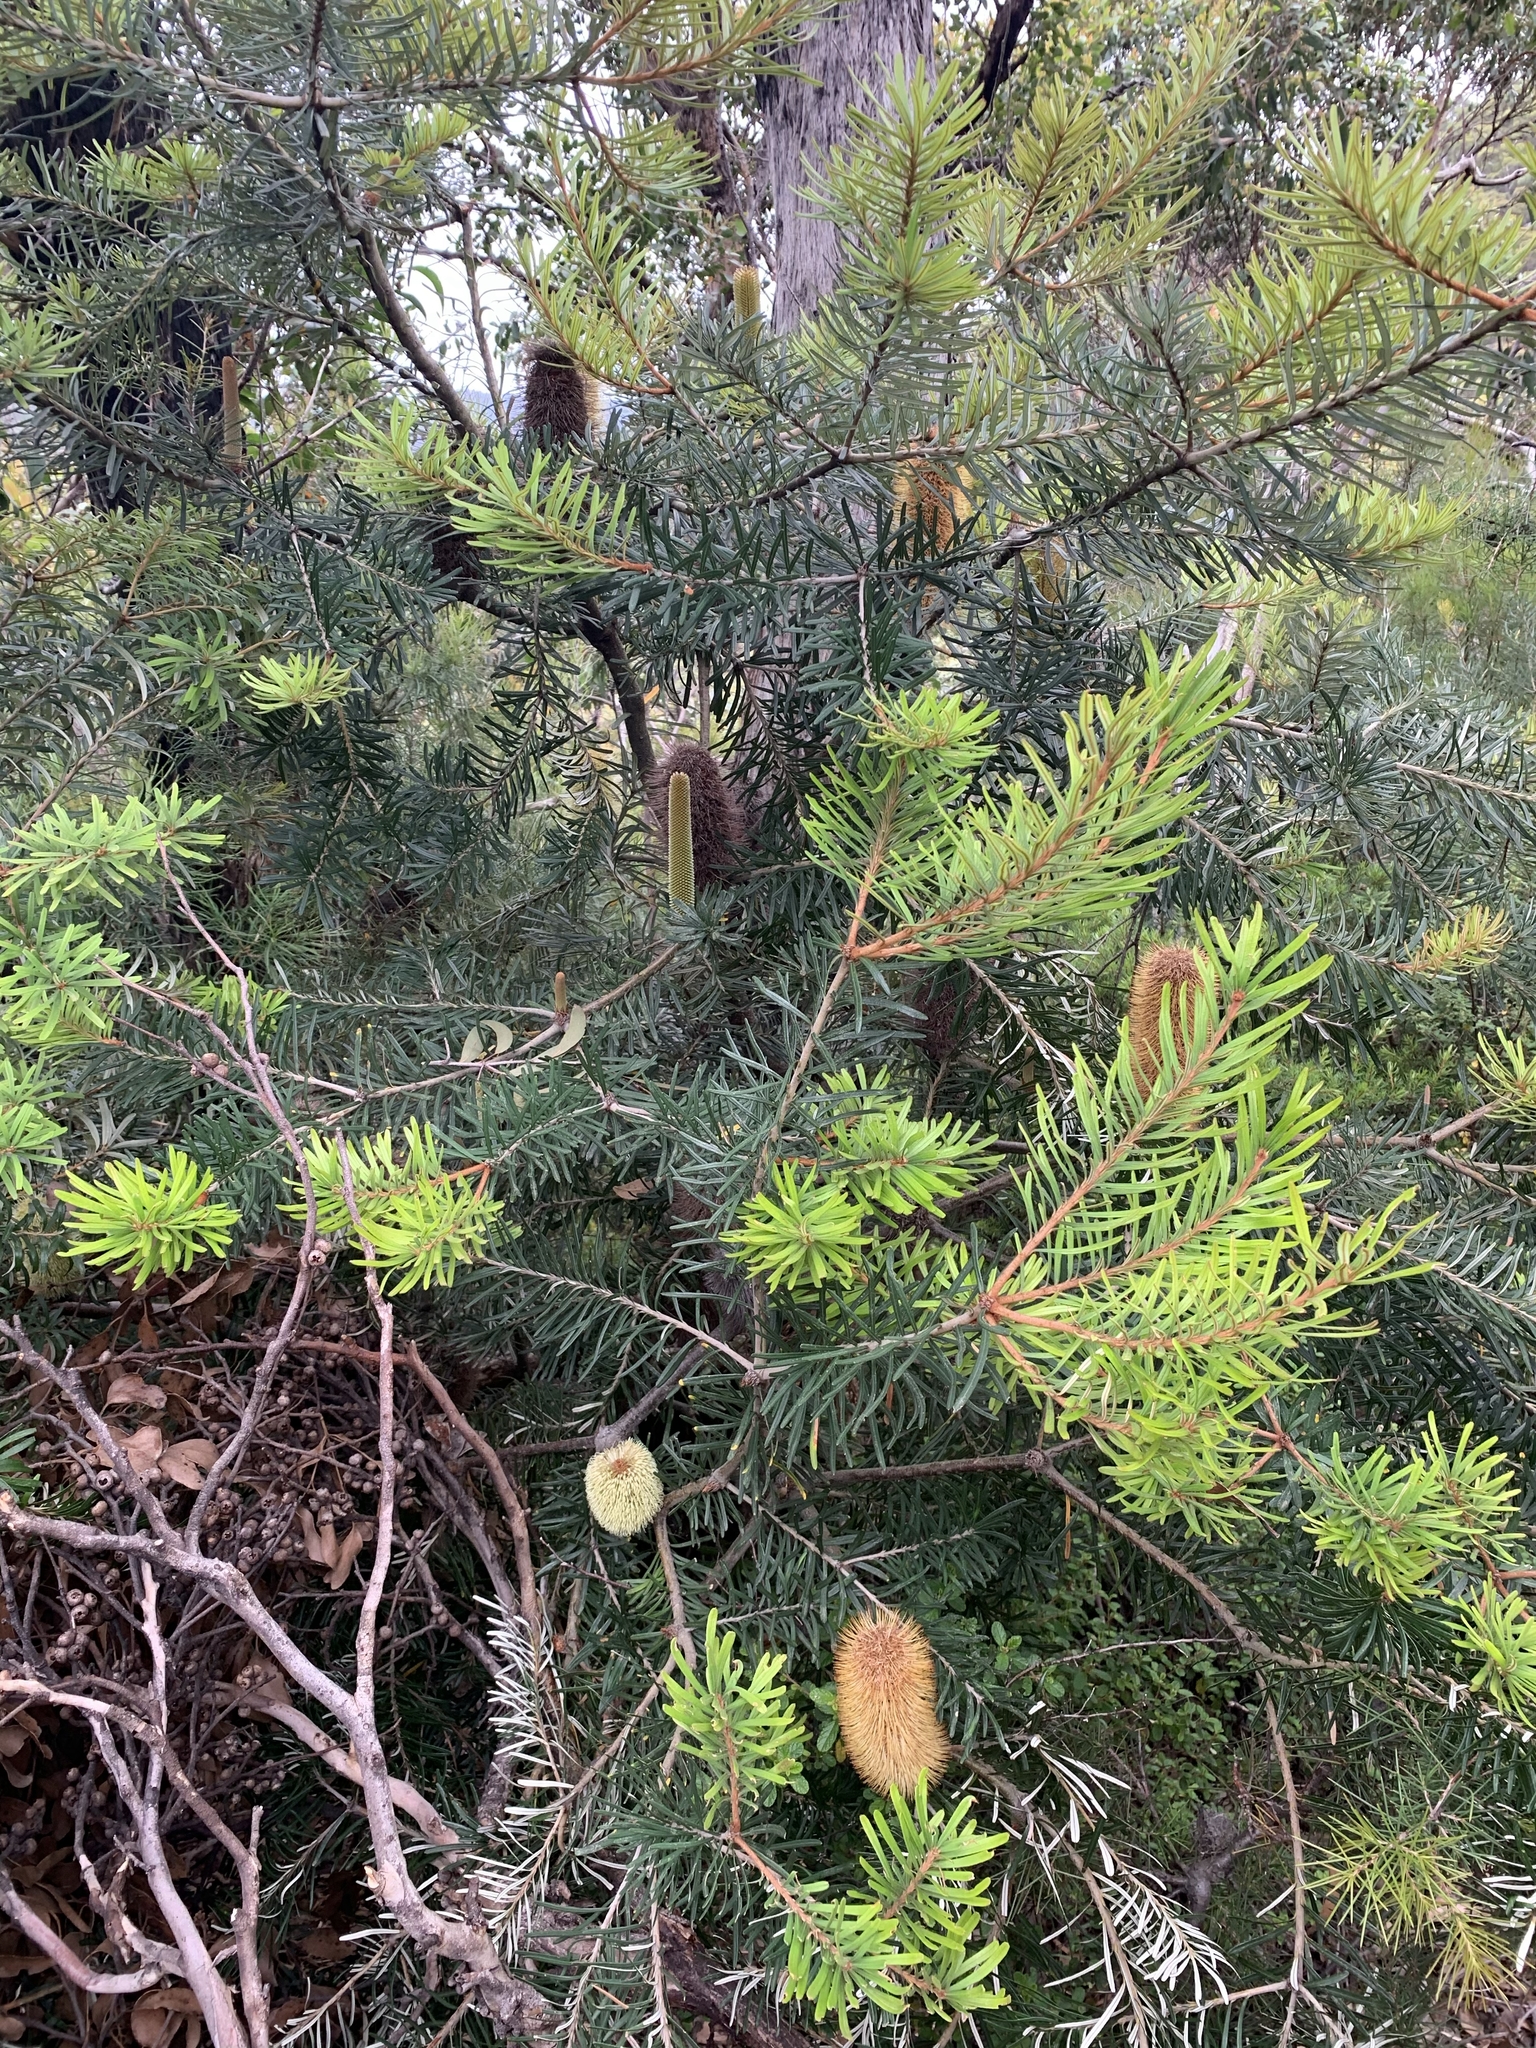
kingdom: Plantae
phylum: Tracheophyta
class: Magnoliopsida
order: Proteales
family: Proteaceae
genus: Banksia
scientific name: Banksia marginata
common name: Silver banksia
